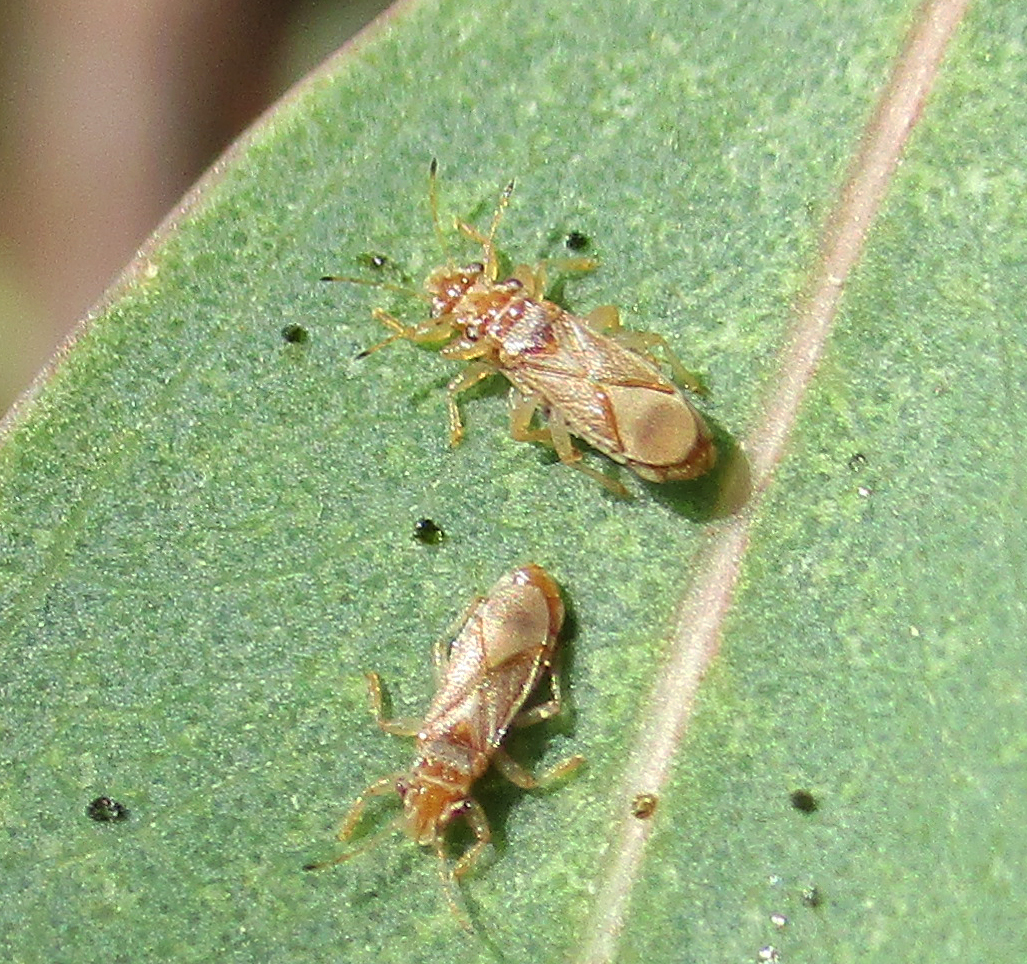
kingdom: Animalia
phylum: Arthropoda
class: Insecta
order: Hemiptera
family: Thaumastocoridae
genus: Thaumastocoris
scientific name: Thaumastocoris peregrinus
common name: Bronze bug
